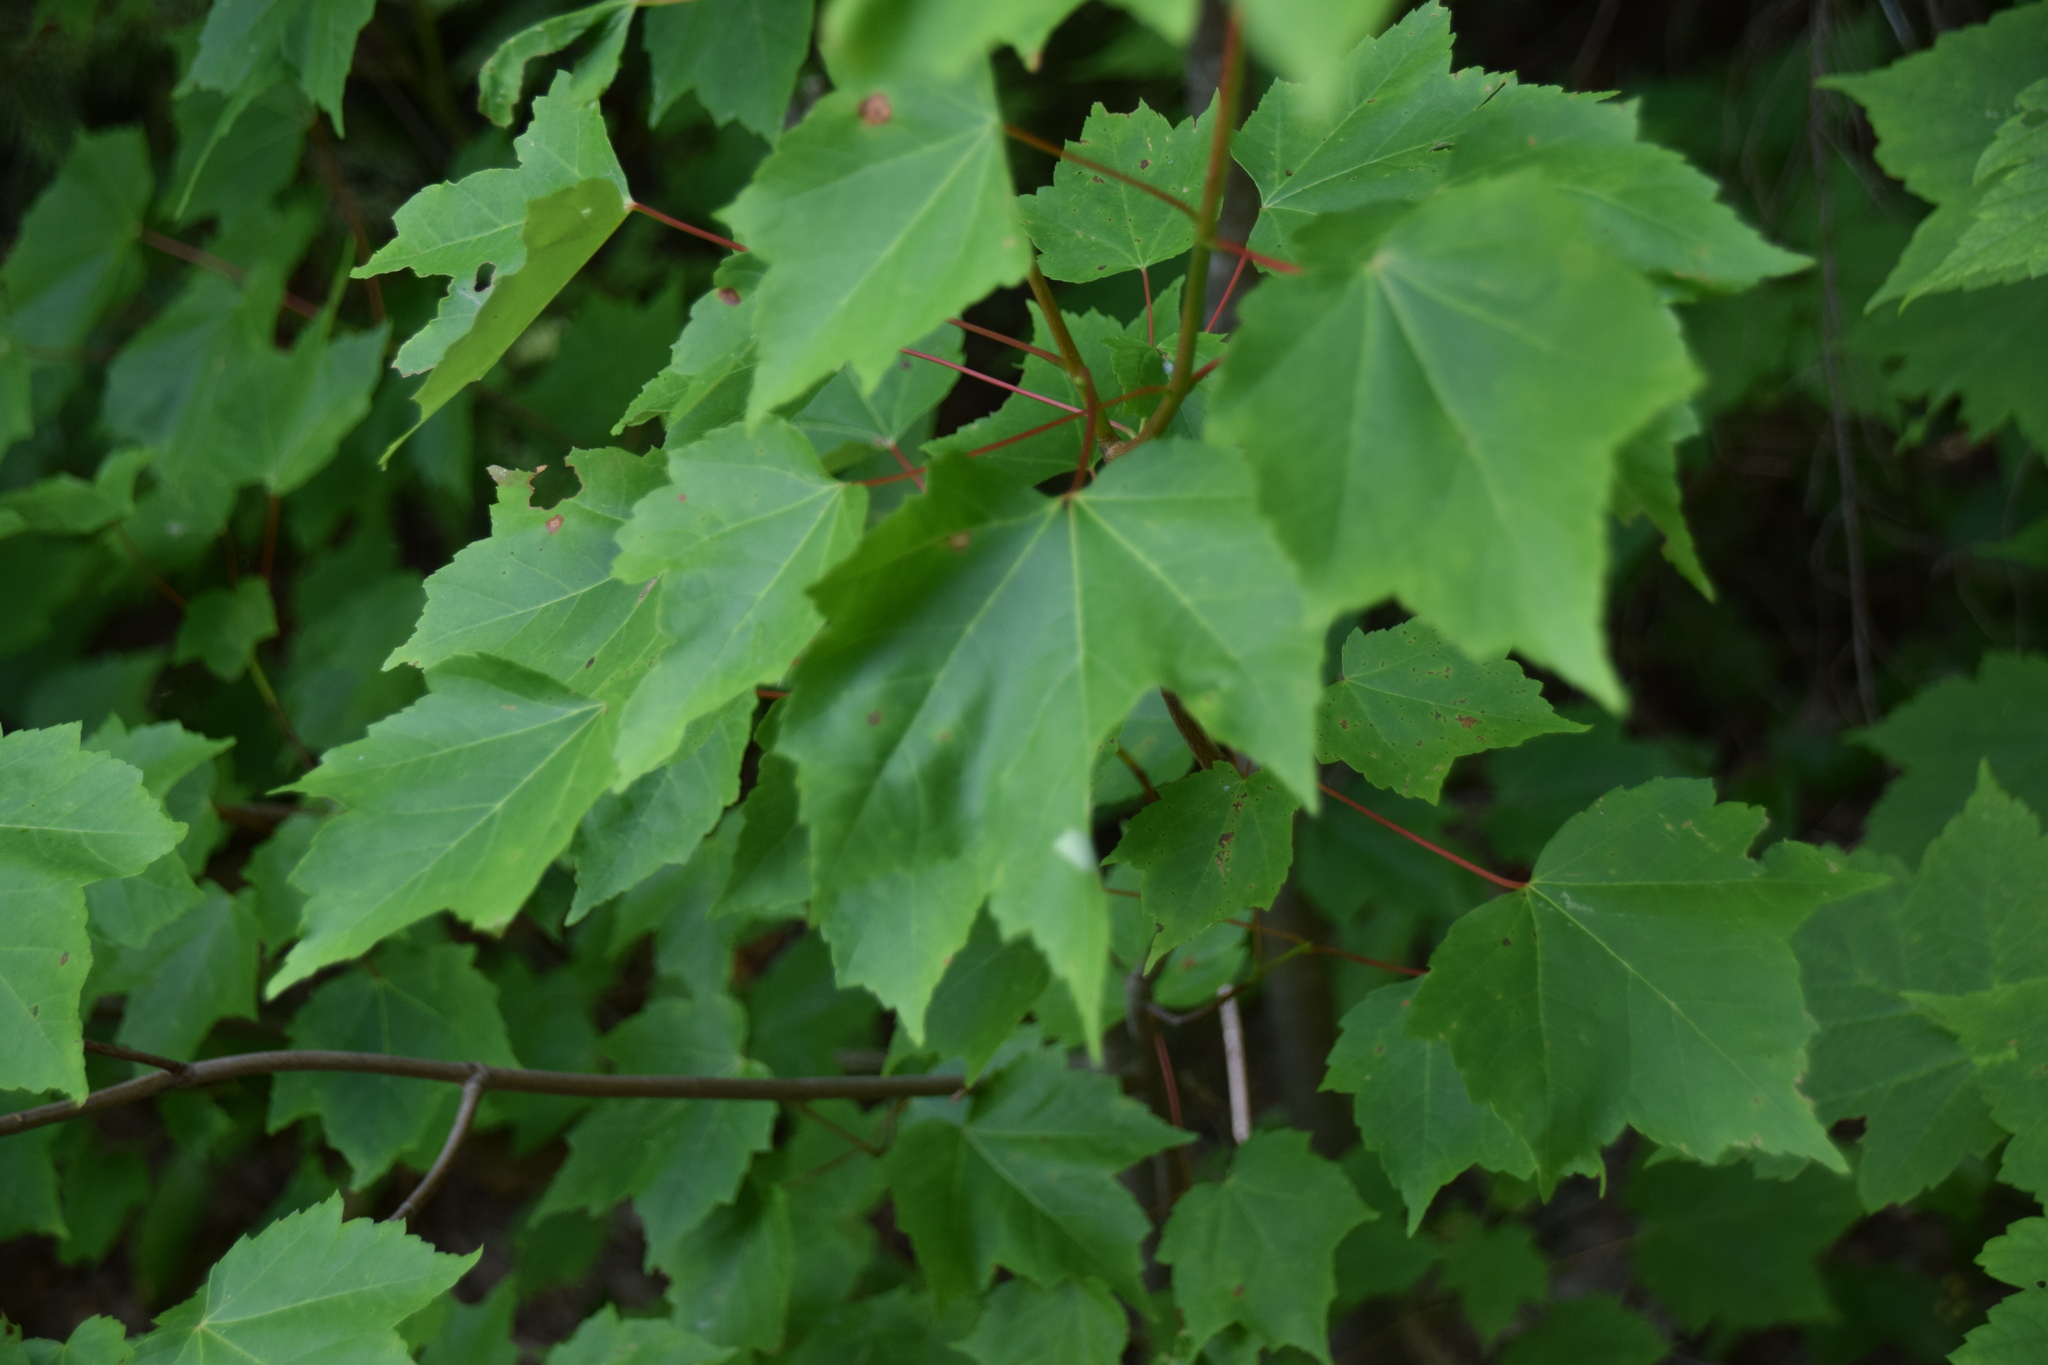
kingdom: Plantae
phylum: Tracheophyta
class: Magnoliopsida
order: Sapindales
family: Sapindaceae
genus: Acer
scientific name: Acer rubrum
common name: Red maple
